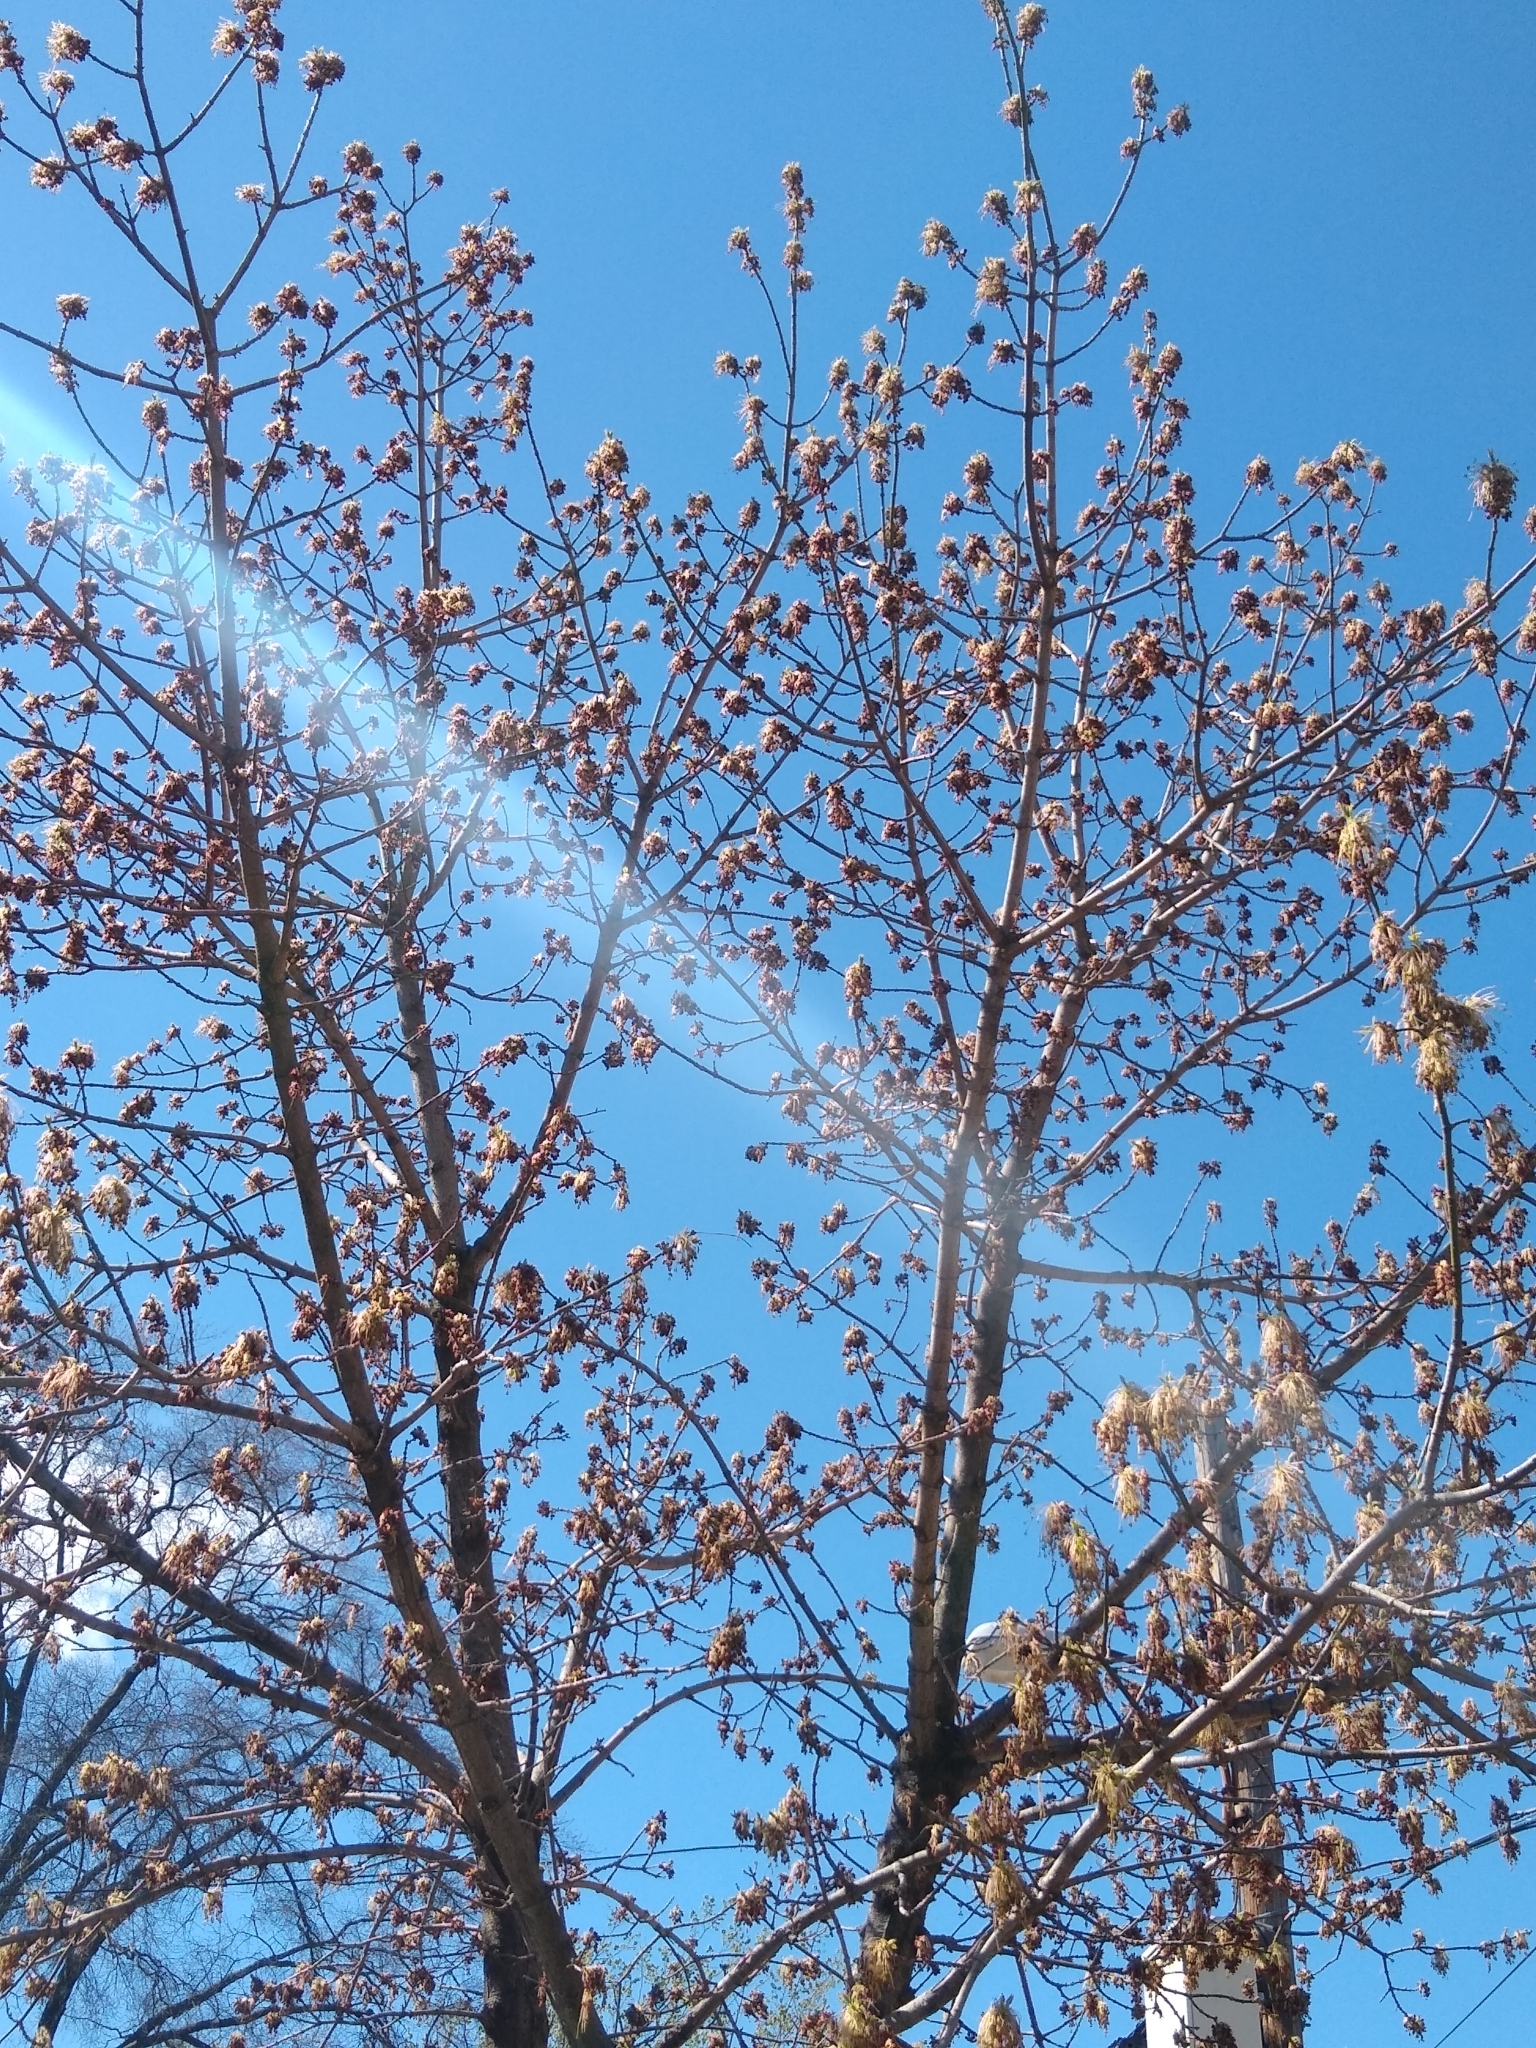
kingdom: Plantae
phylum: Tracheophyta
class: Magnoliopsida
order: Sapindales
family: Sapindaceae
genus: Acer
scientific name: Acer negundo
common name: Ashleaf maple
